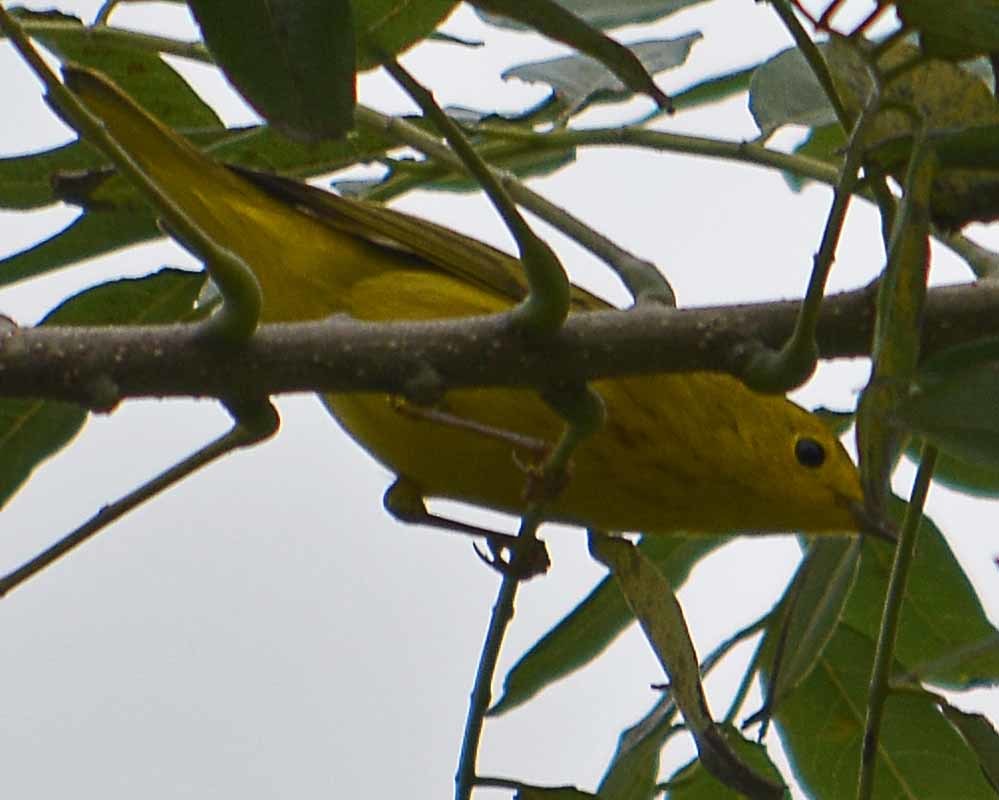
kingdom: Animalia
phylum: Chordata
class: Aves
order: Passeriformes
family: Parulidae
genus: Setophaga
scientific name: Setophaga petechia
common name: Yellow warbler
